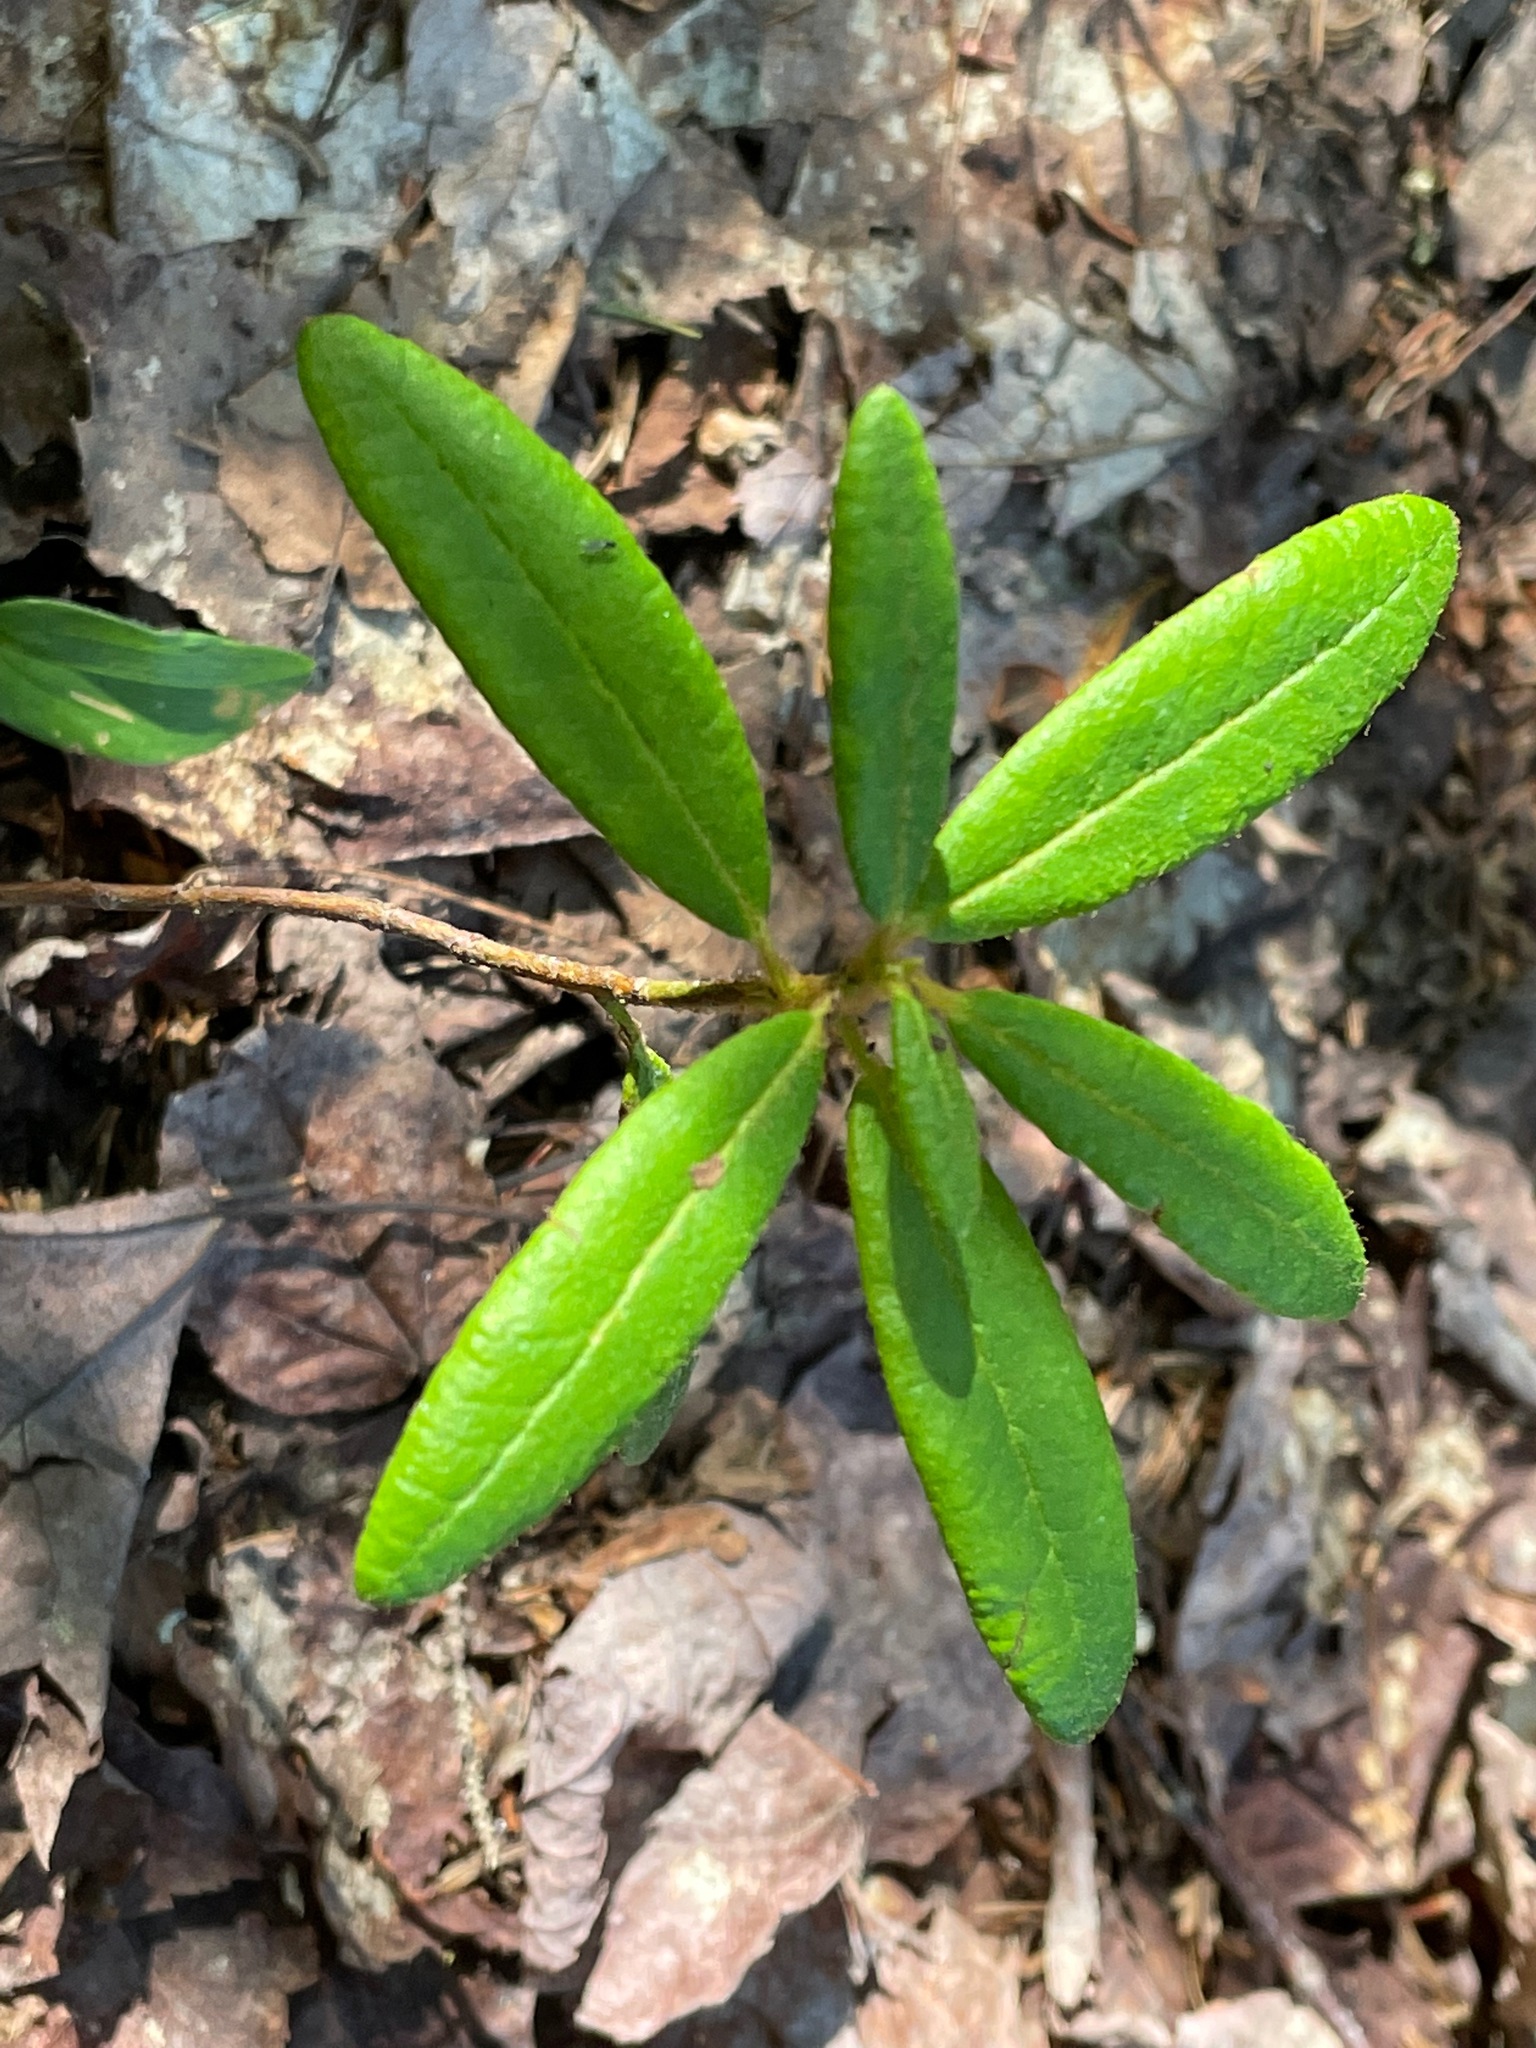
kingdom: Plantae
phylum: Tracheophyta
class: Magnoliopsida
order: Ericales
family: Ericaceae
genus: Rhododendron
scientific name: Rhododendron groenlandicum
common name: Bog labrador tea
